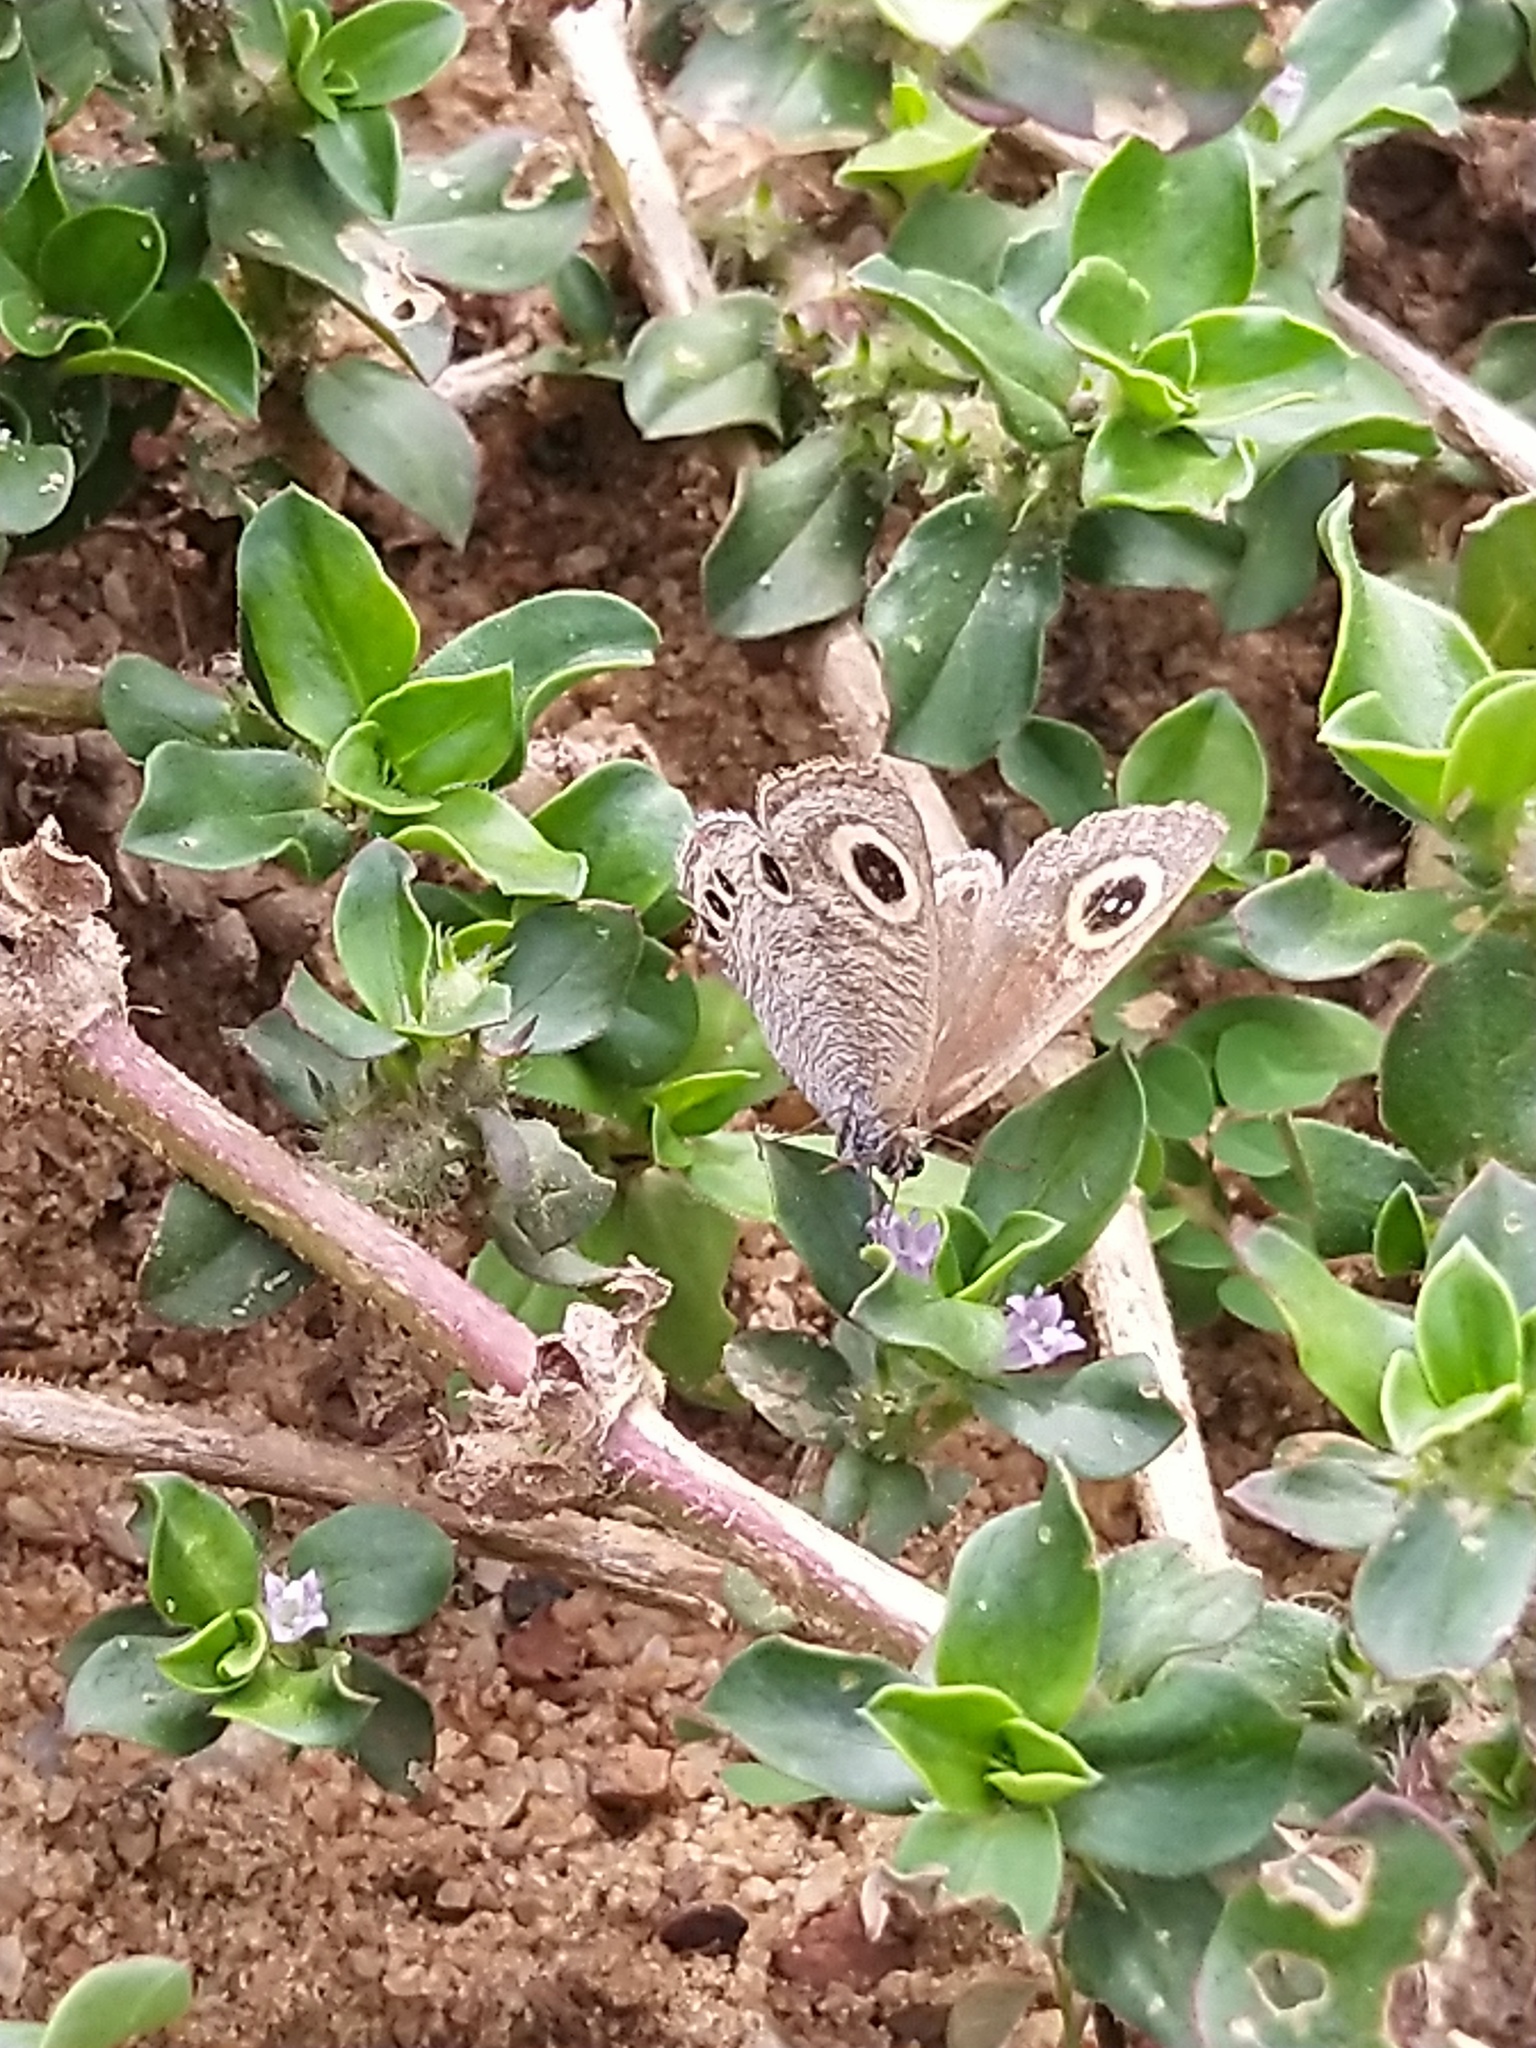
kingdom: Animalia
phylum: Arthropoda
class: Insecta
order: Lepidoptera
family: Nymphalidae
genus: Ypthima
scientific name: Ypthima huebneri
